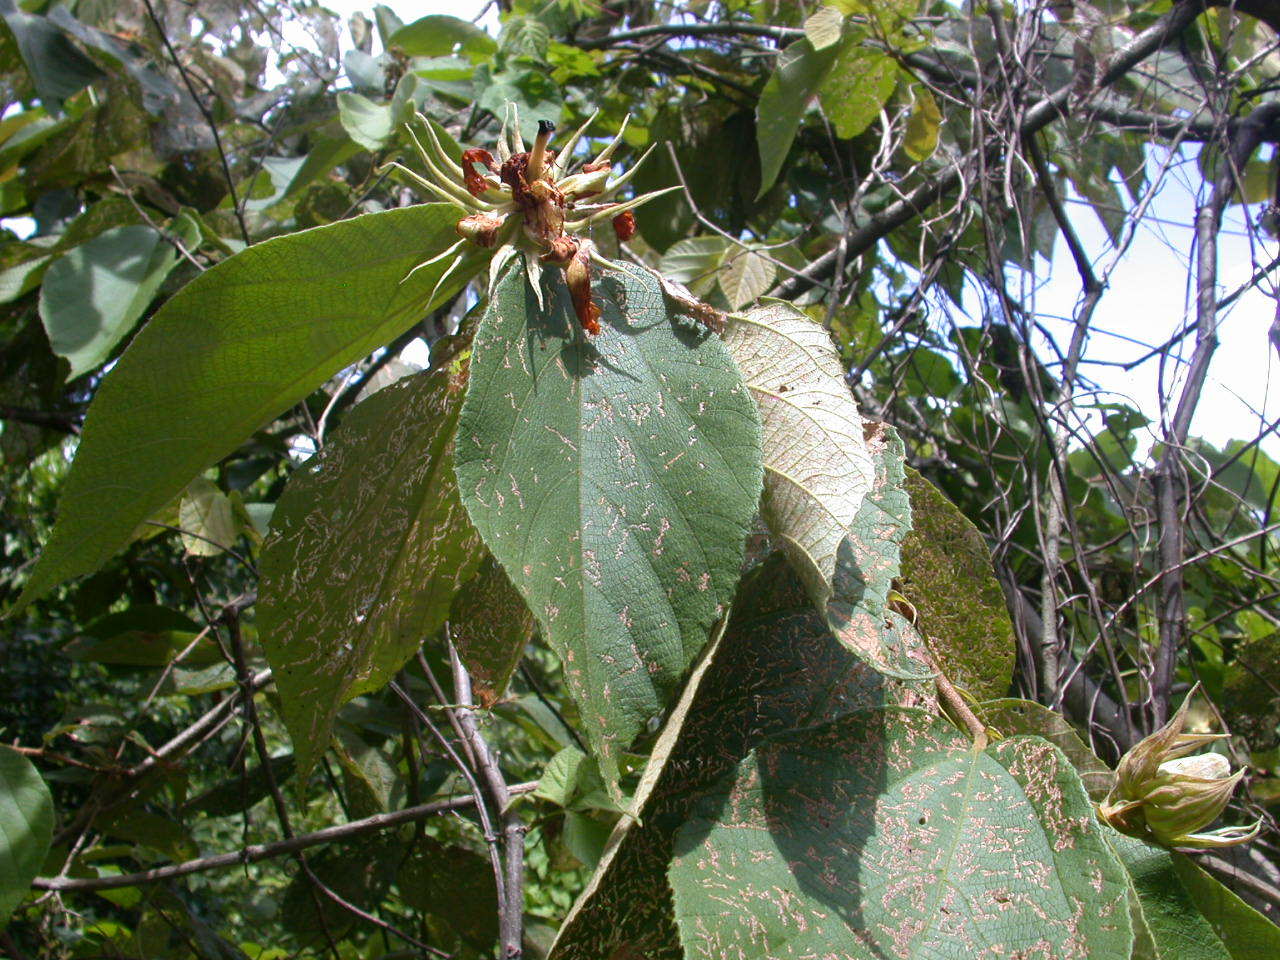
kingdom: Plantae
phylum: Tracheophyta
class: Magnoliopsida
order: Malvales
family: Malvaceae
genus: Luehea
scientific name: Luehea candida
